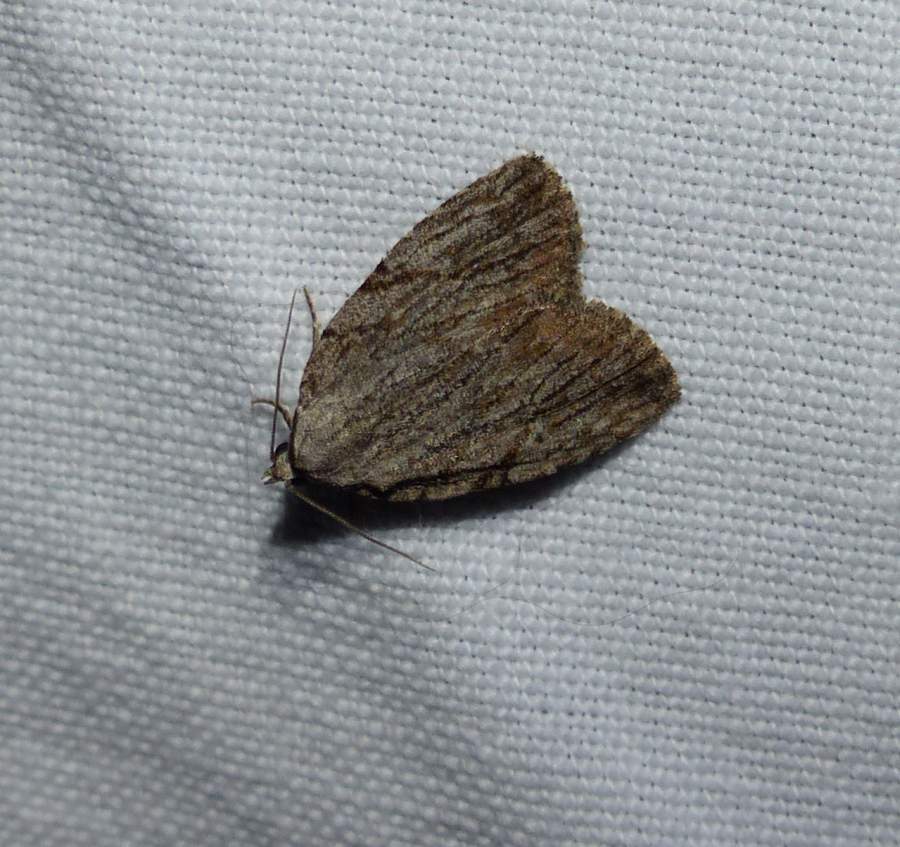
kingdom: Animalia
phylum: Arthropoda
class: Insecta
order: Lepidoptera
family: Noctuidae
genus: Balsa
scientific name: Balsa tristrigella
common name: Three-lined balsa moth
